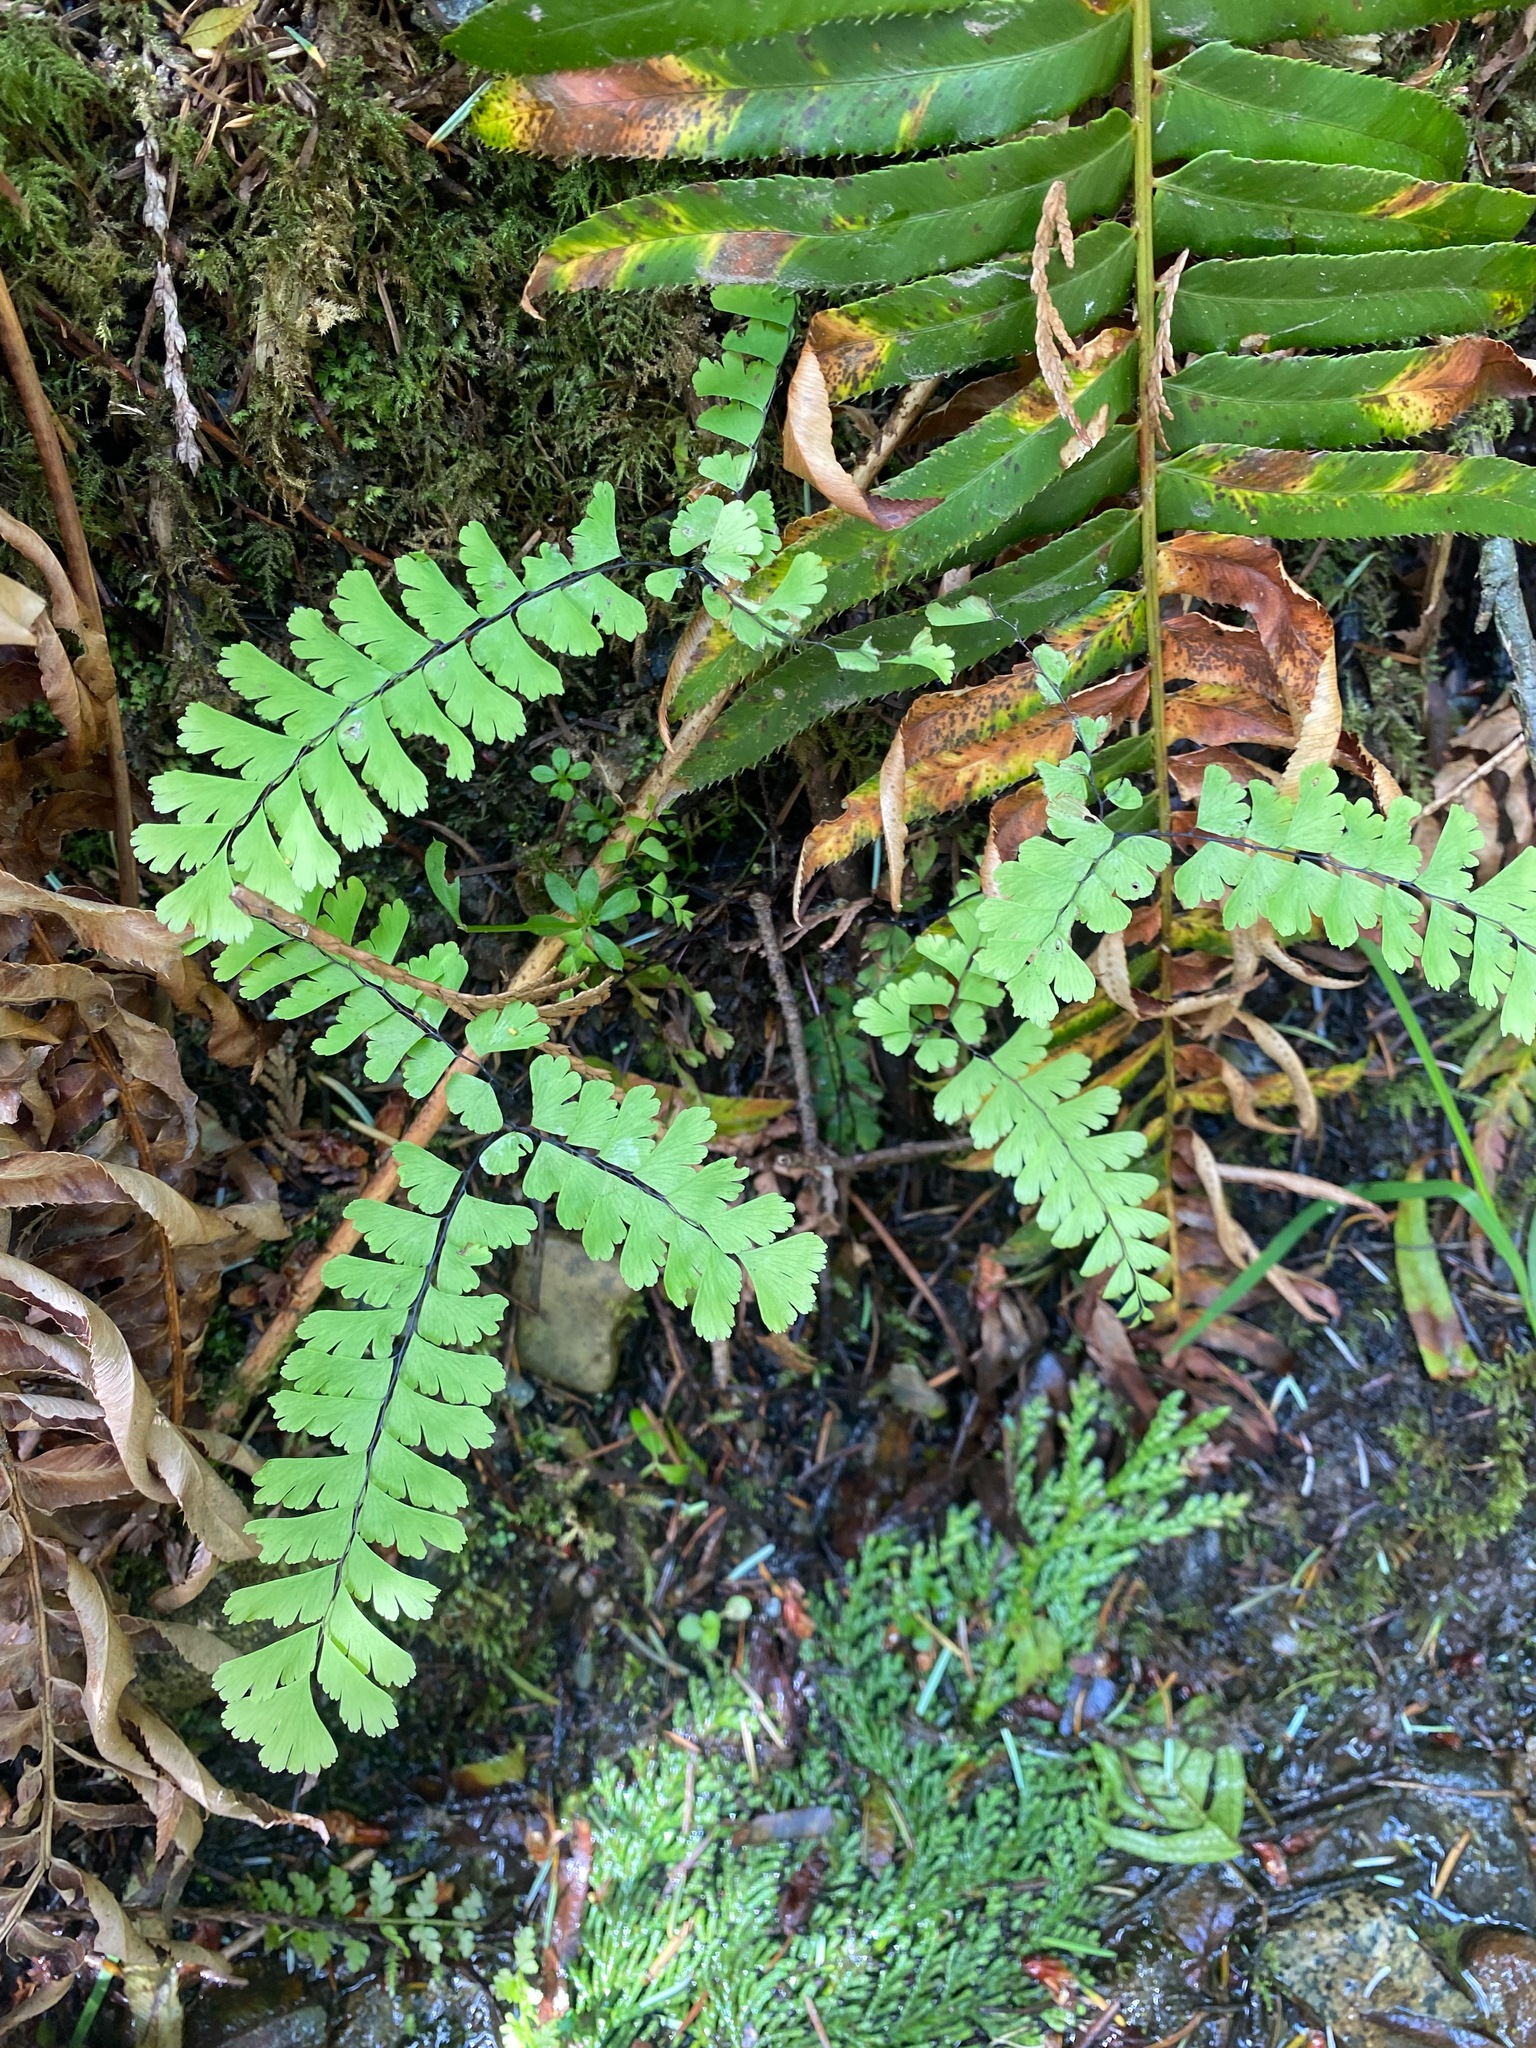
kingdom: Plantae
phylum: Tracheophyta
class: Polypodiopsida
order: Polypodiales
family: Pteridaceae
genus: Adiantum
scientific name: Adiantum aleuticum
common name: Aleutian maidenhair fern
